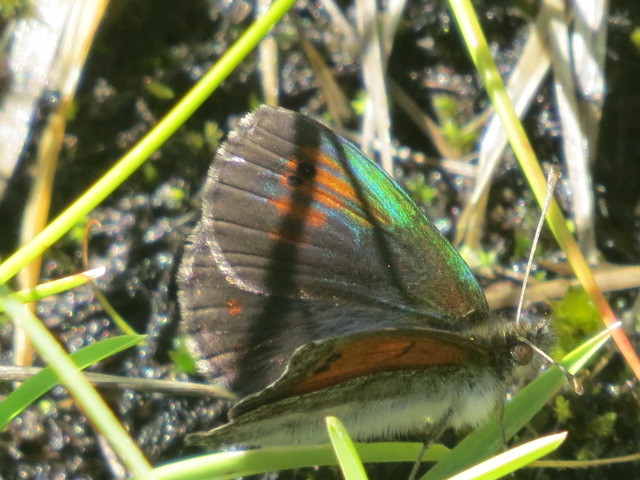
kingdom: Animalia
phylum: Arthropoda
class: Insecta
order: Lepidoptera
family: Nymphalidae
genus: Erebia
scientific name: Erebia tyndarus
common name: Swiss brassy ringlet
